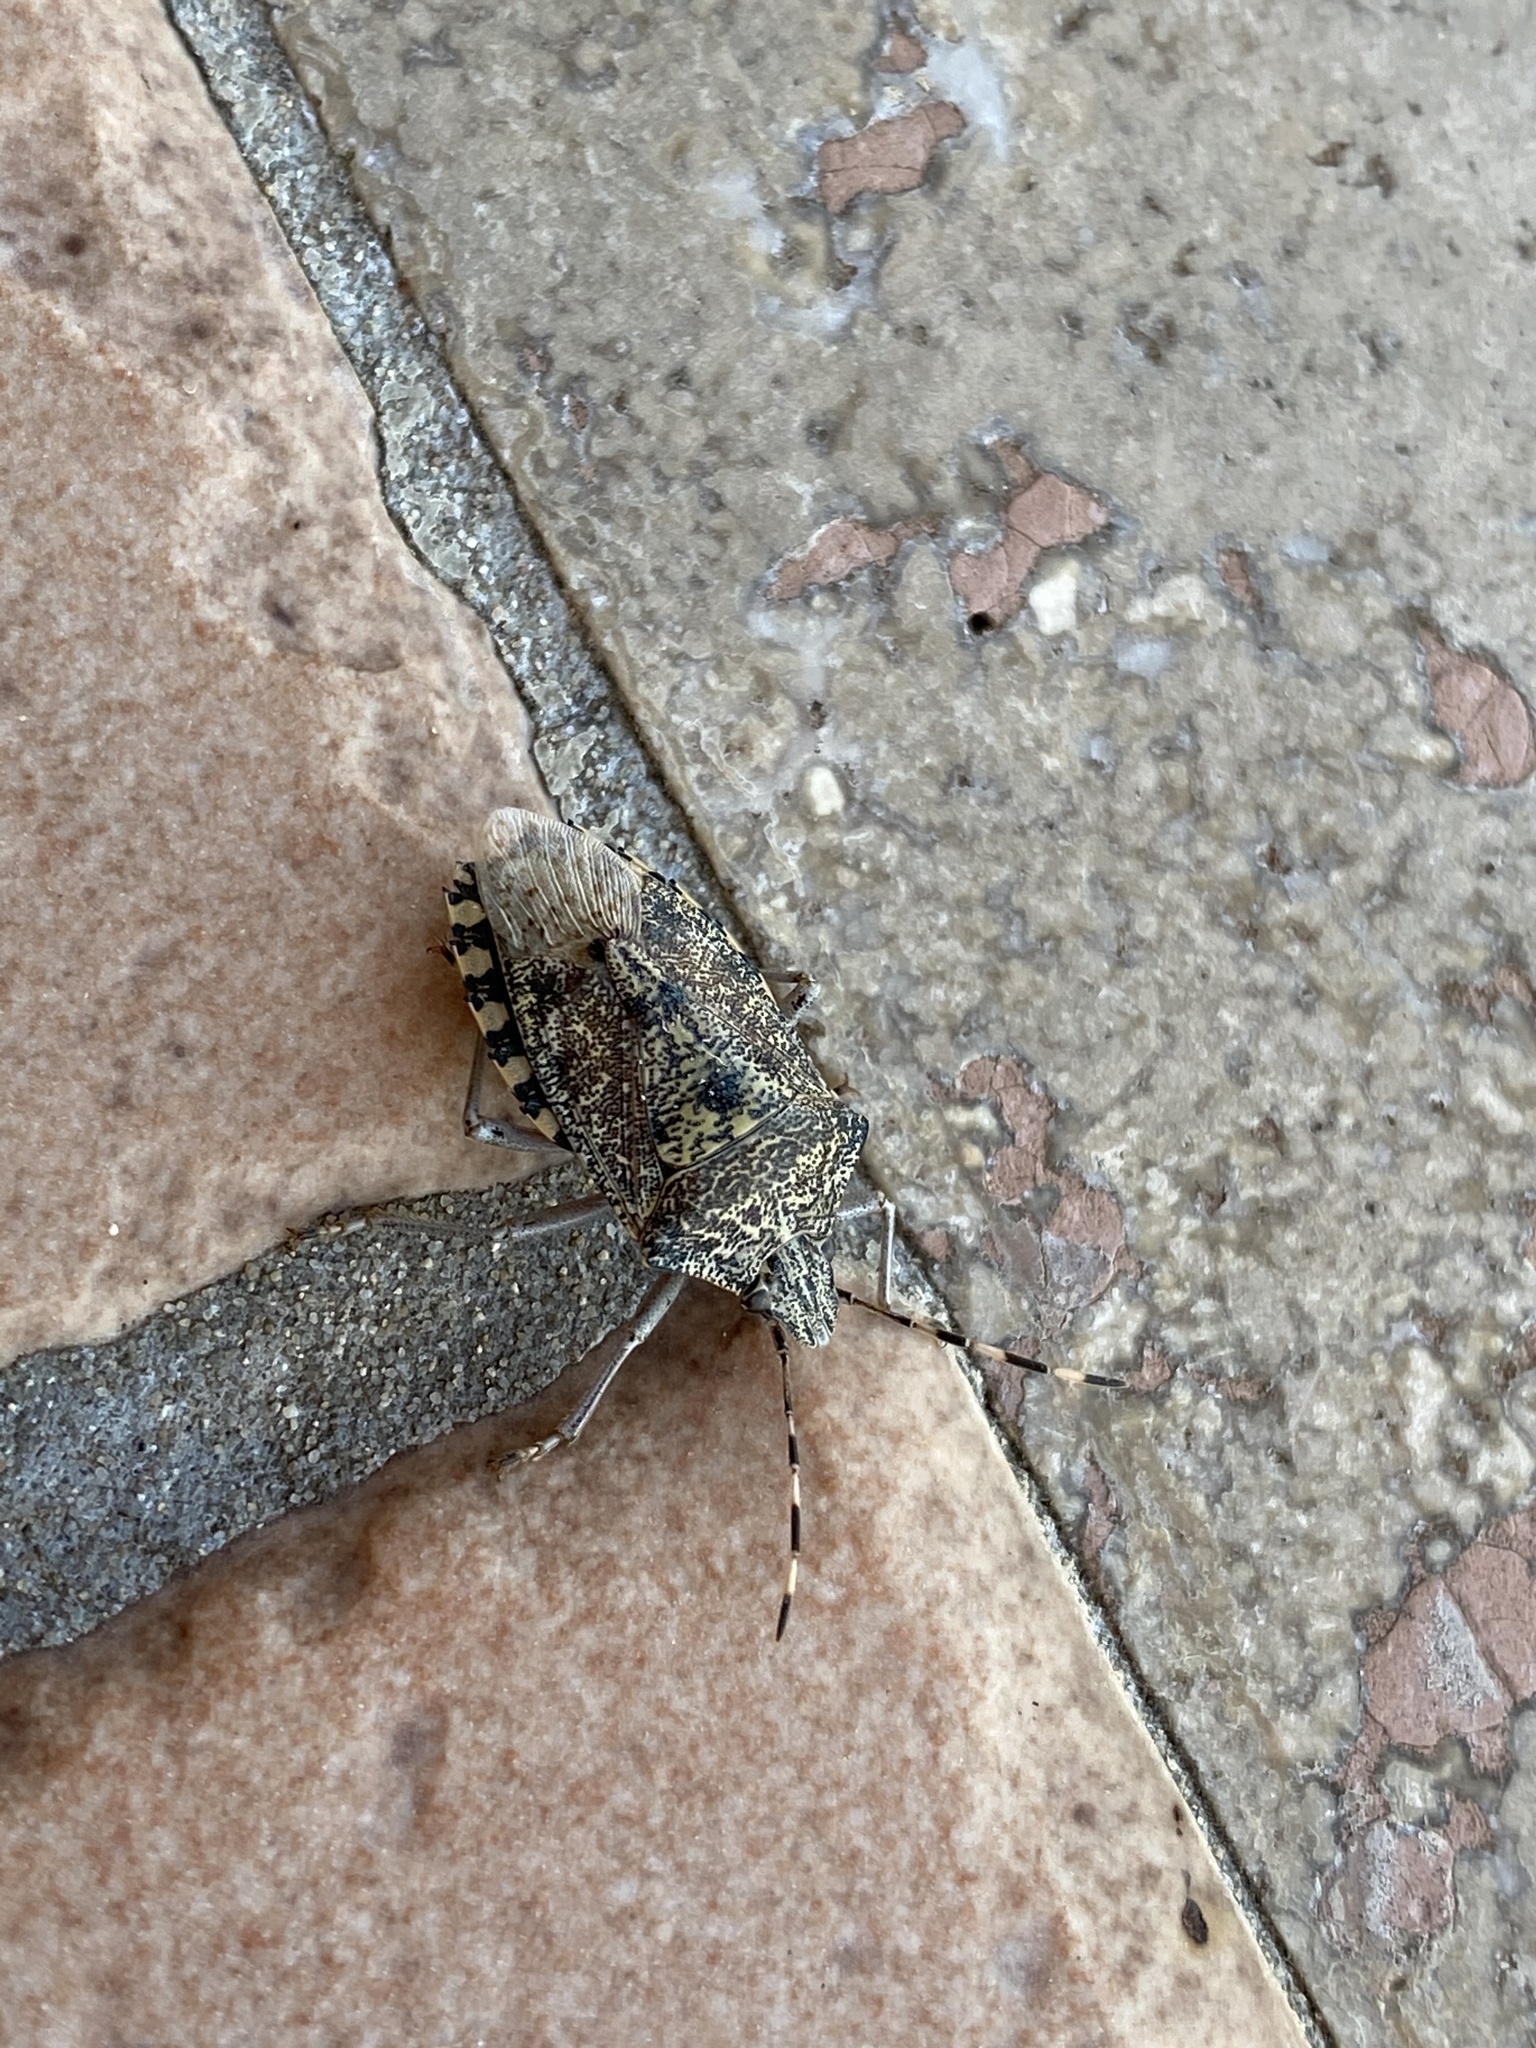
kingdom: Animalia
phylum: Arthropoda
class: Insecta
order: Hemiptera
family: Pentatomidae
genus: Rhaphigaster
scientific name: Rhaphigaster nebulosa
